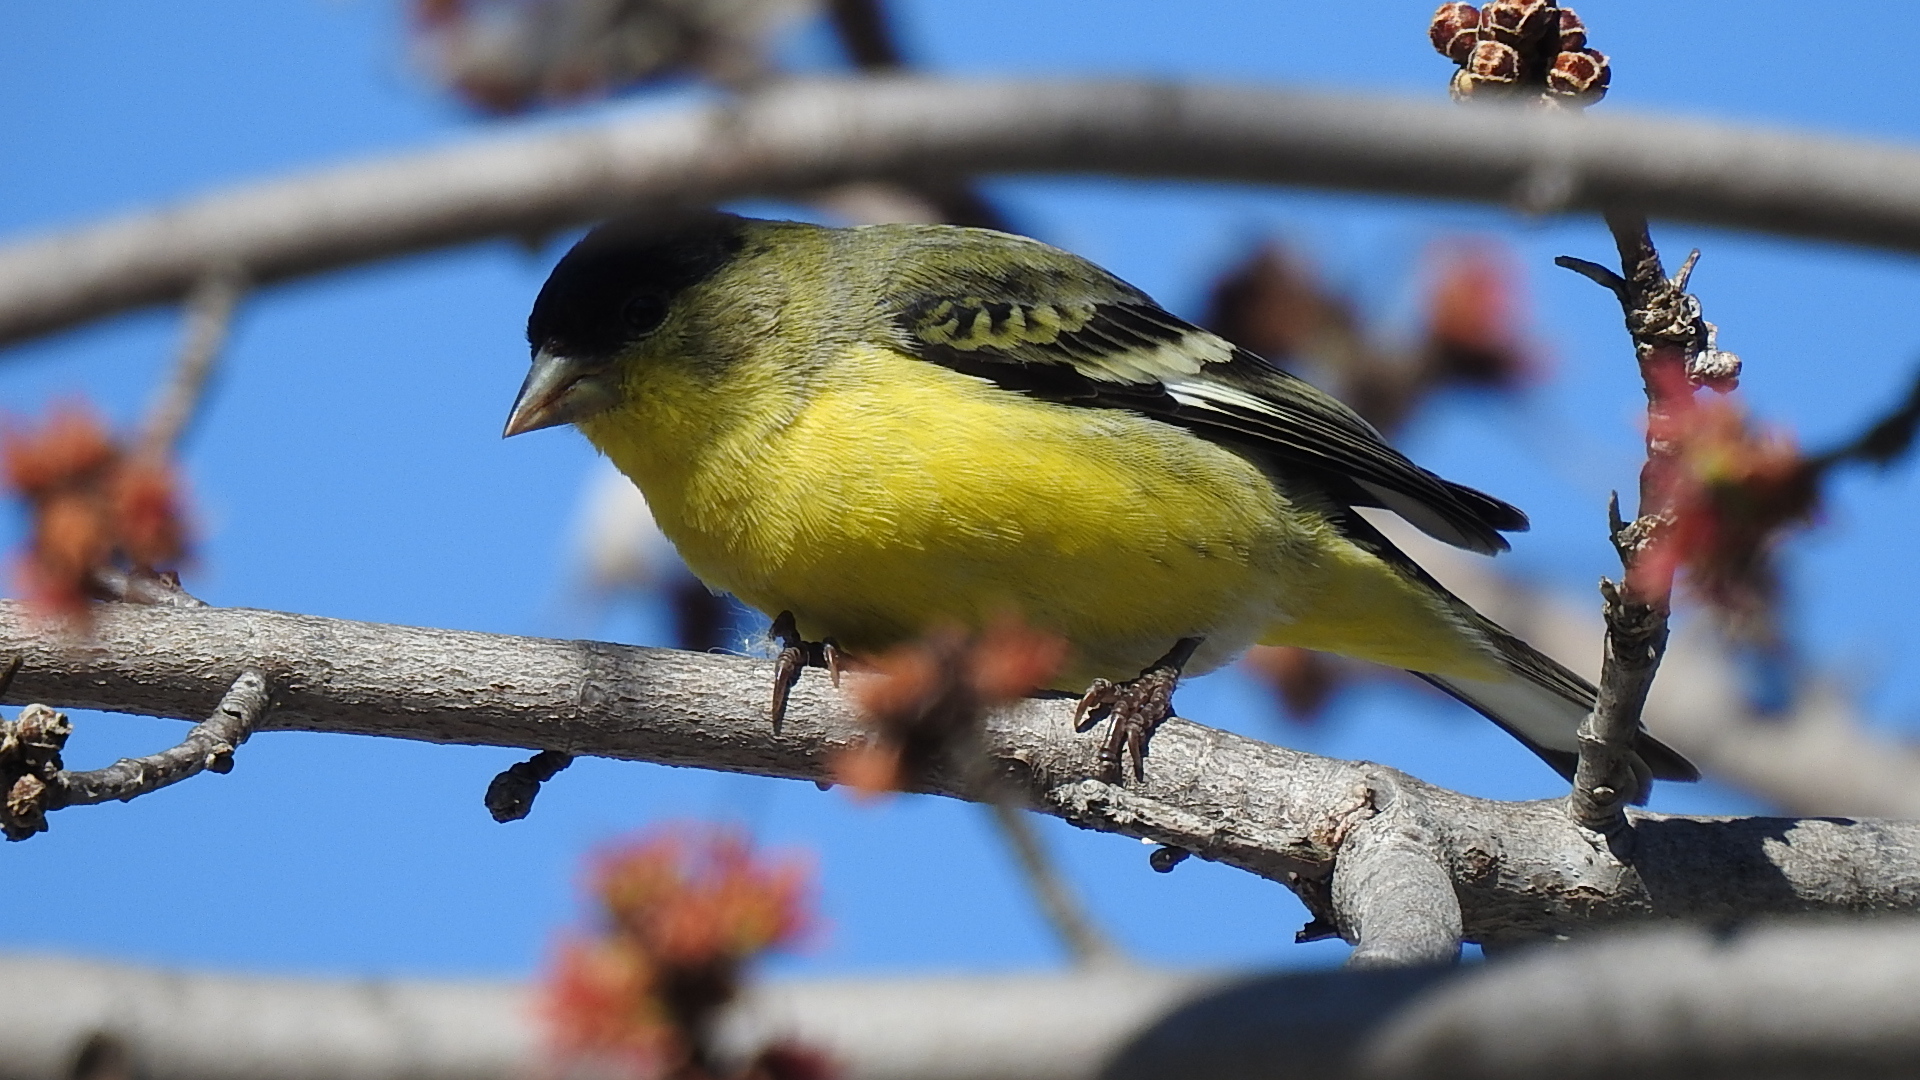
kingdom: Animalia
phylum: Chordata
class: Aves
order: Passeriformes
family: Fringillidae
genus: Spinus
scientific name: Spinus psaltria
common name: Lesser goldfinch
